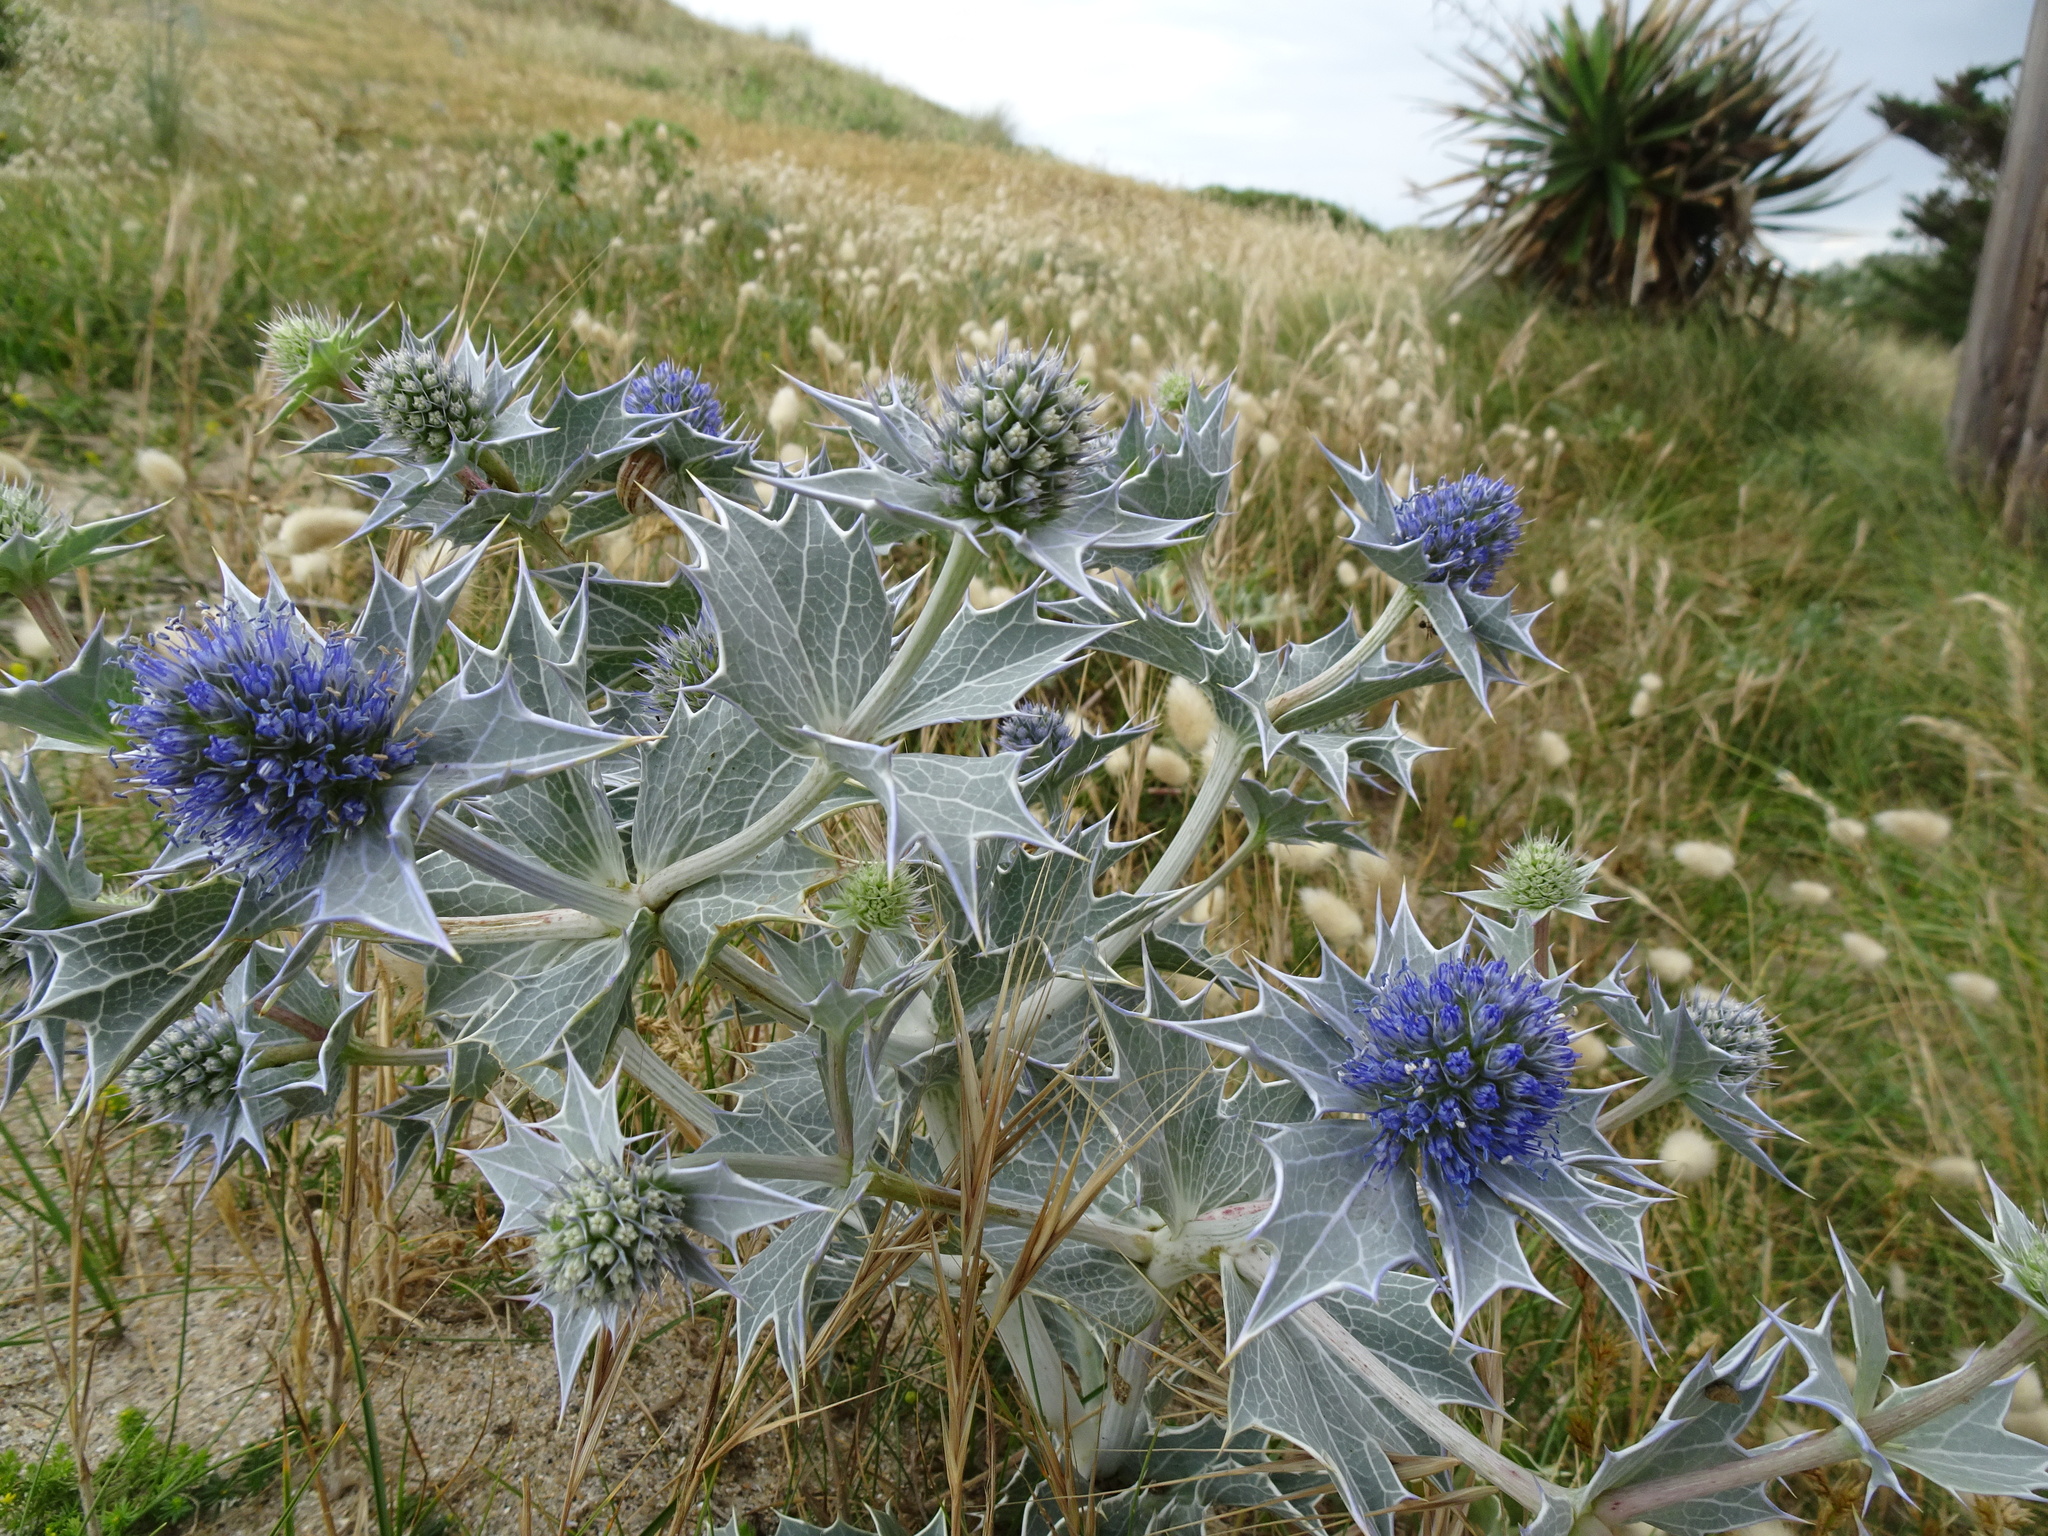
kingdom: Plantae
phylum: Tracheophyta
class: Magnoliopsida
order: Apiales
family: Apiaceae
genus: Eryngium
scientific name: Eryngium maritimum
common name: Sea-holly
